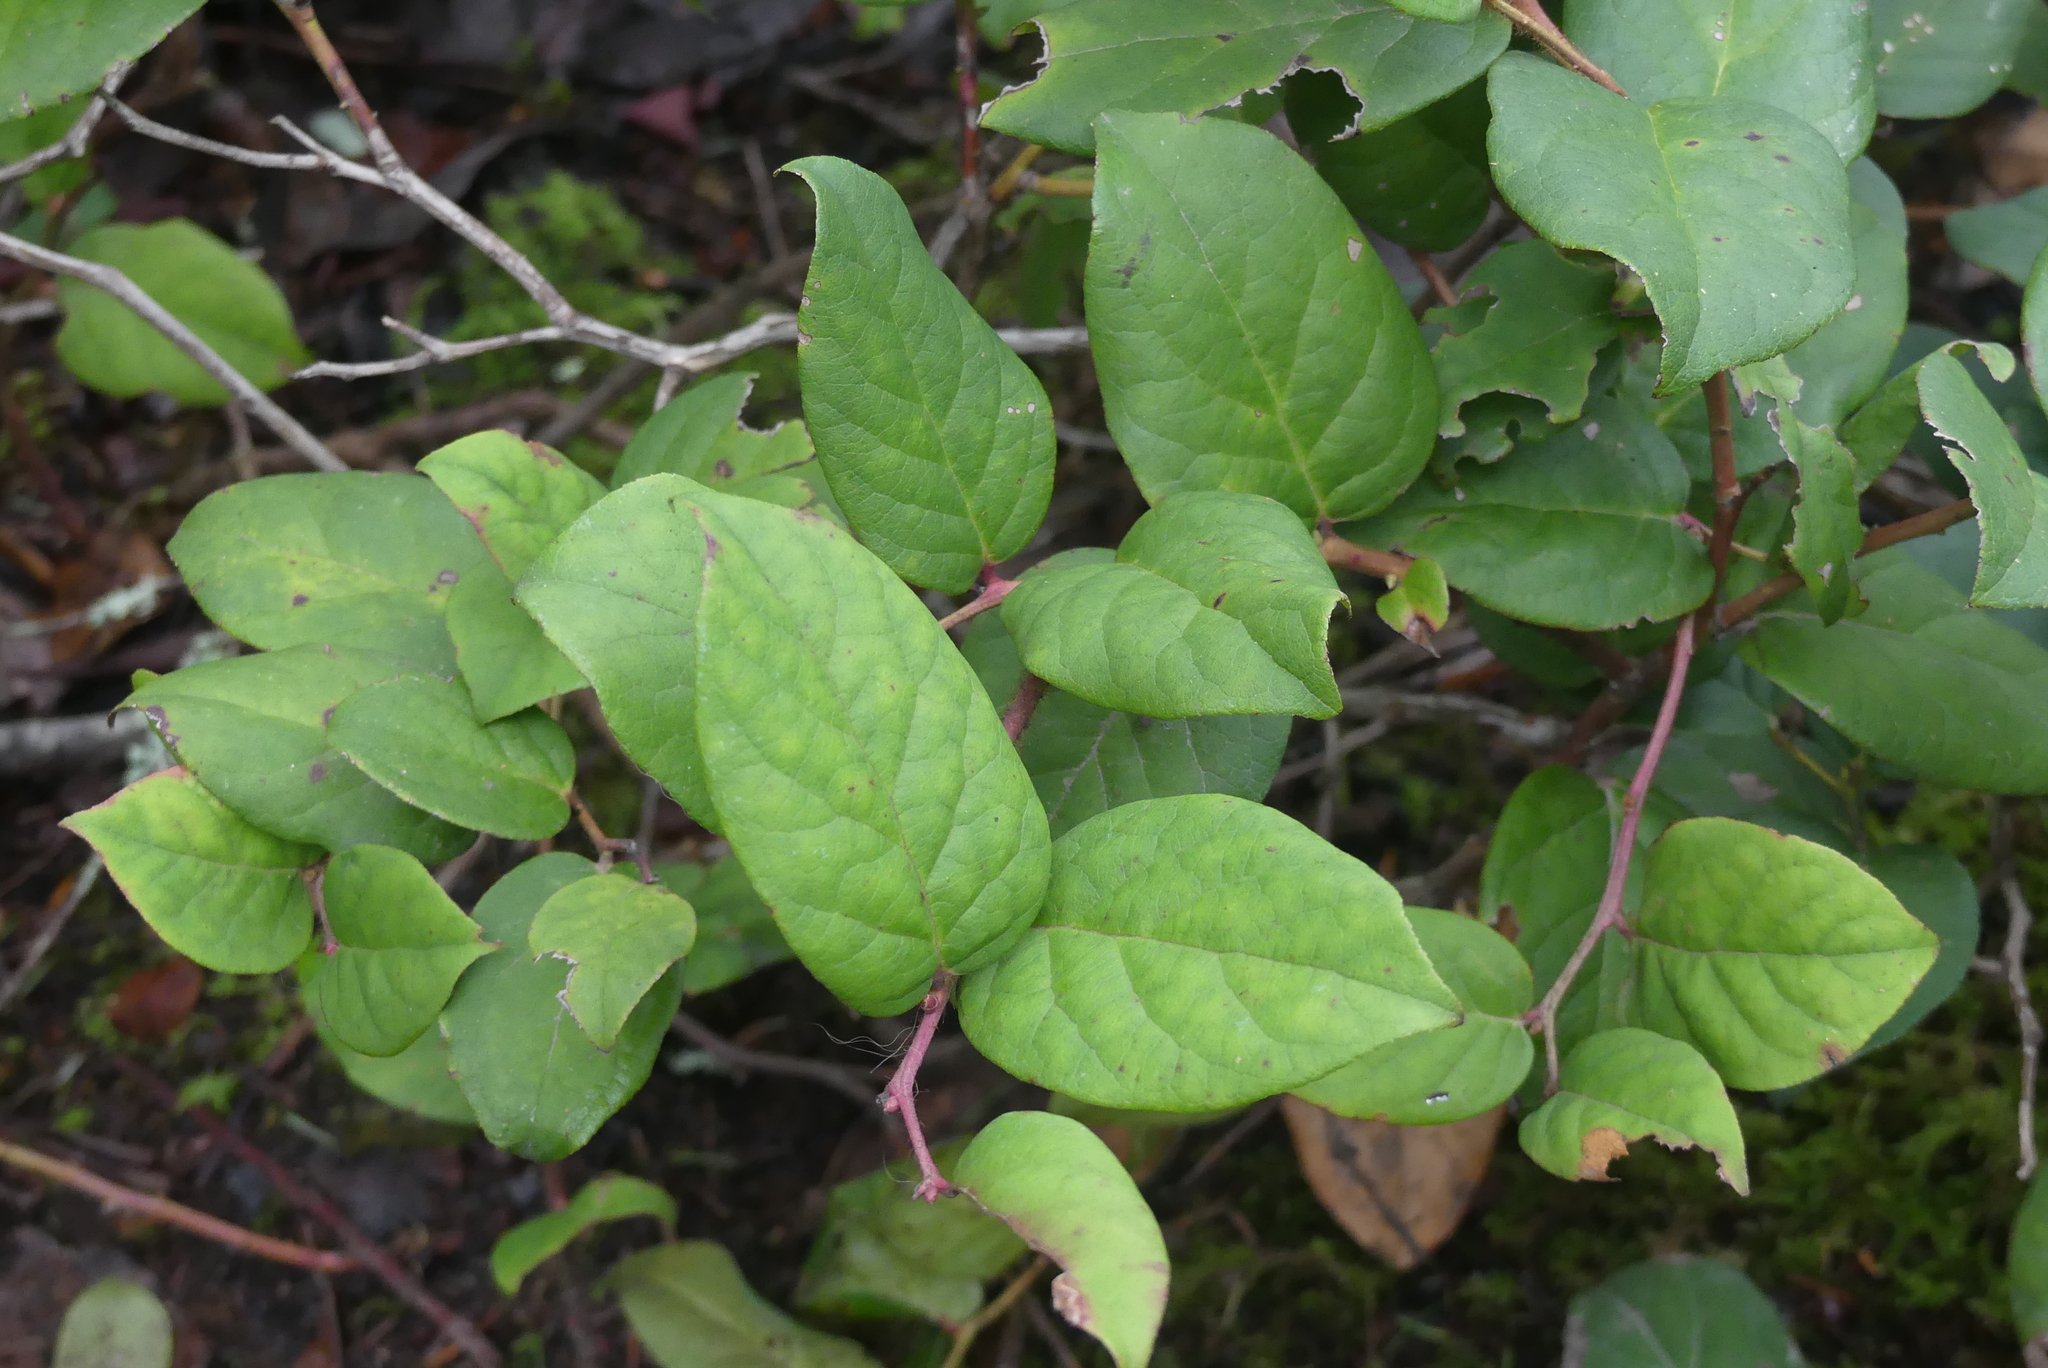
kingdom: Plantae
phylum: Tracheophyta
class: Magnoliopsida
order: Ericales
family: Ericaceae
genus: Gaultheria
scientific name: Gaultheria shallon
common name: Shallon
